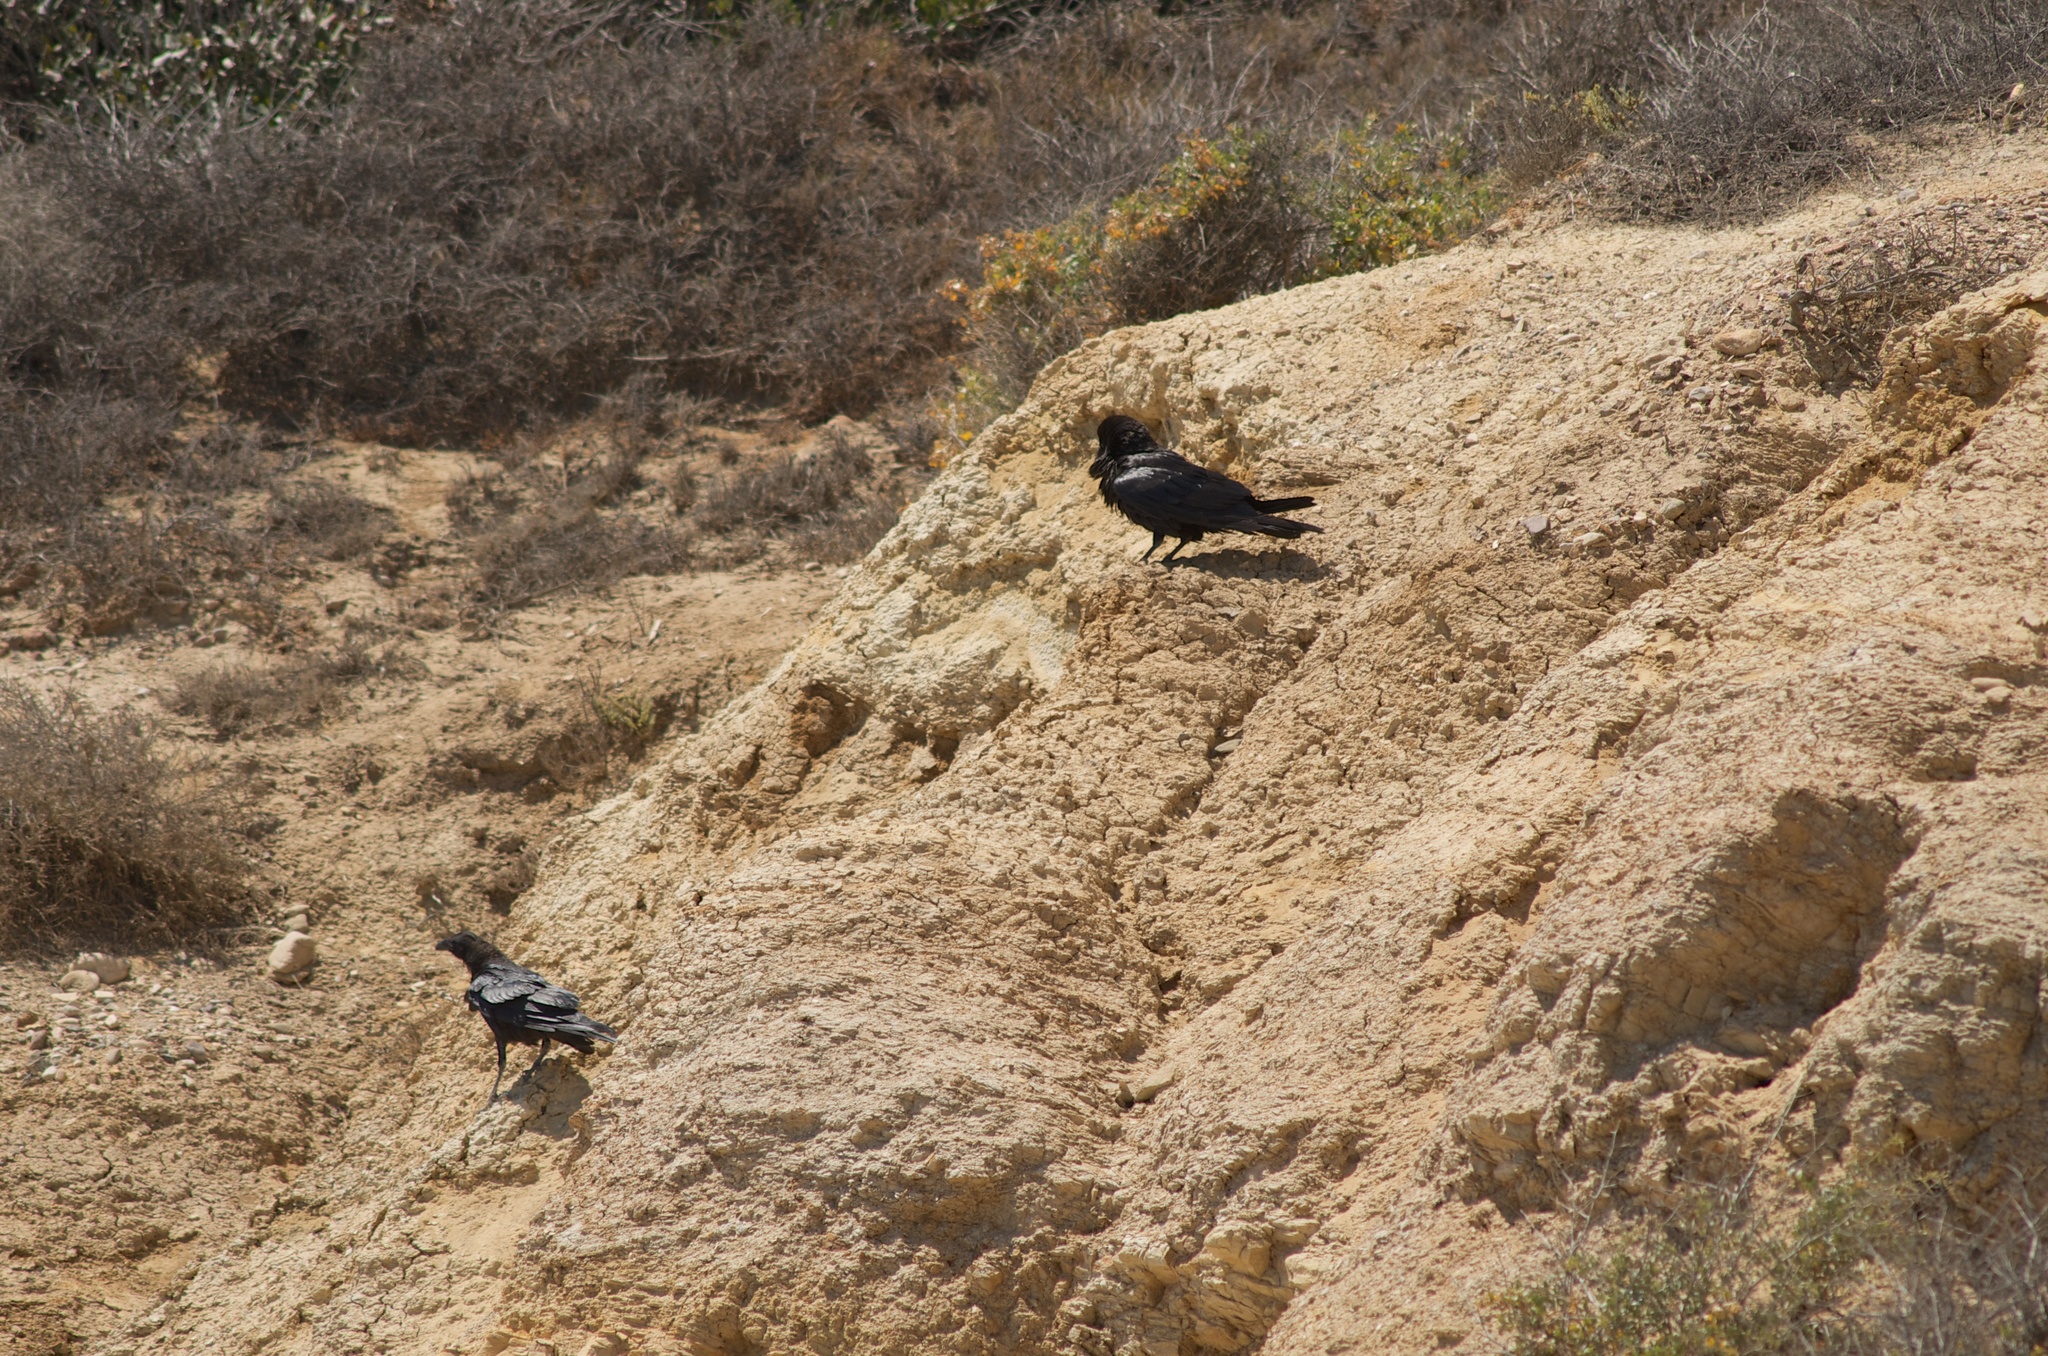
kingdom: Animalia
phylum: Chordata
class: Aves
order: Passeriformes
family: Corvidae
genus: Corvus
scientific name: Corvus brachyrhynchos
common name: American crow
